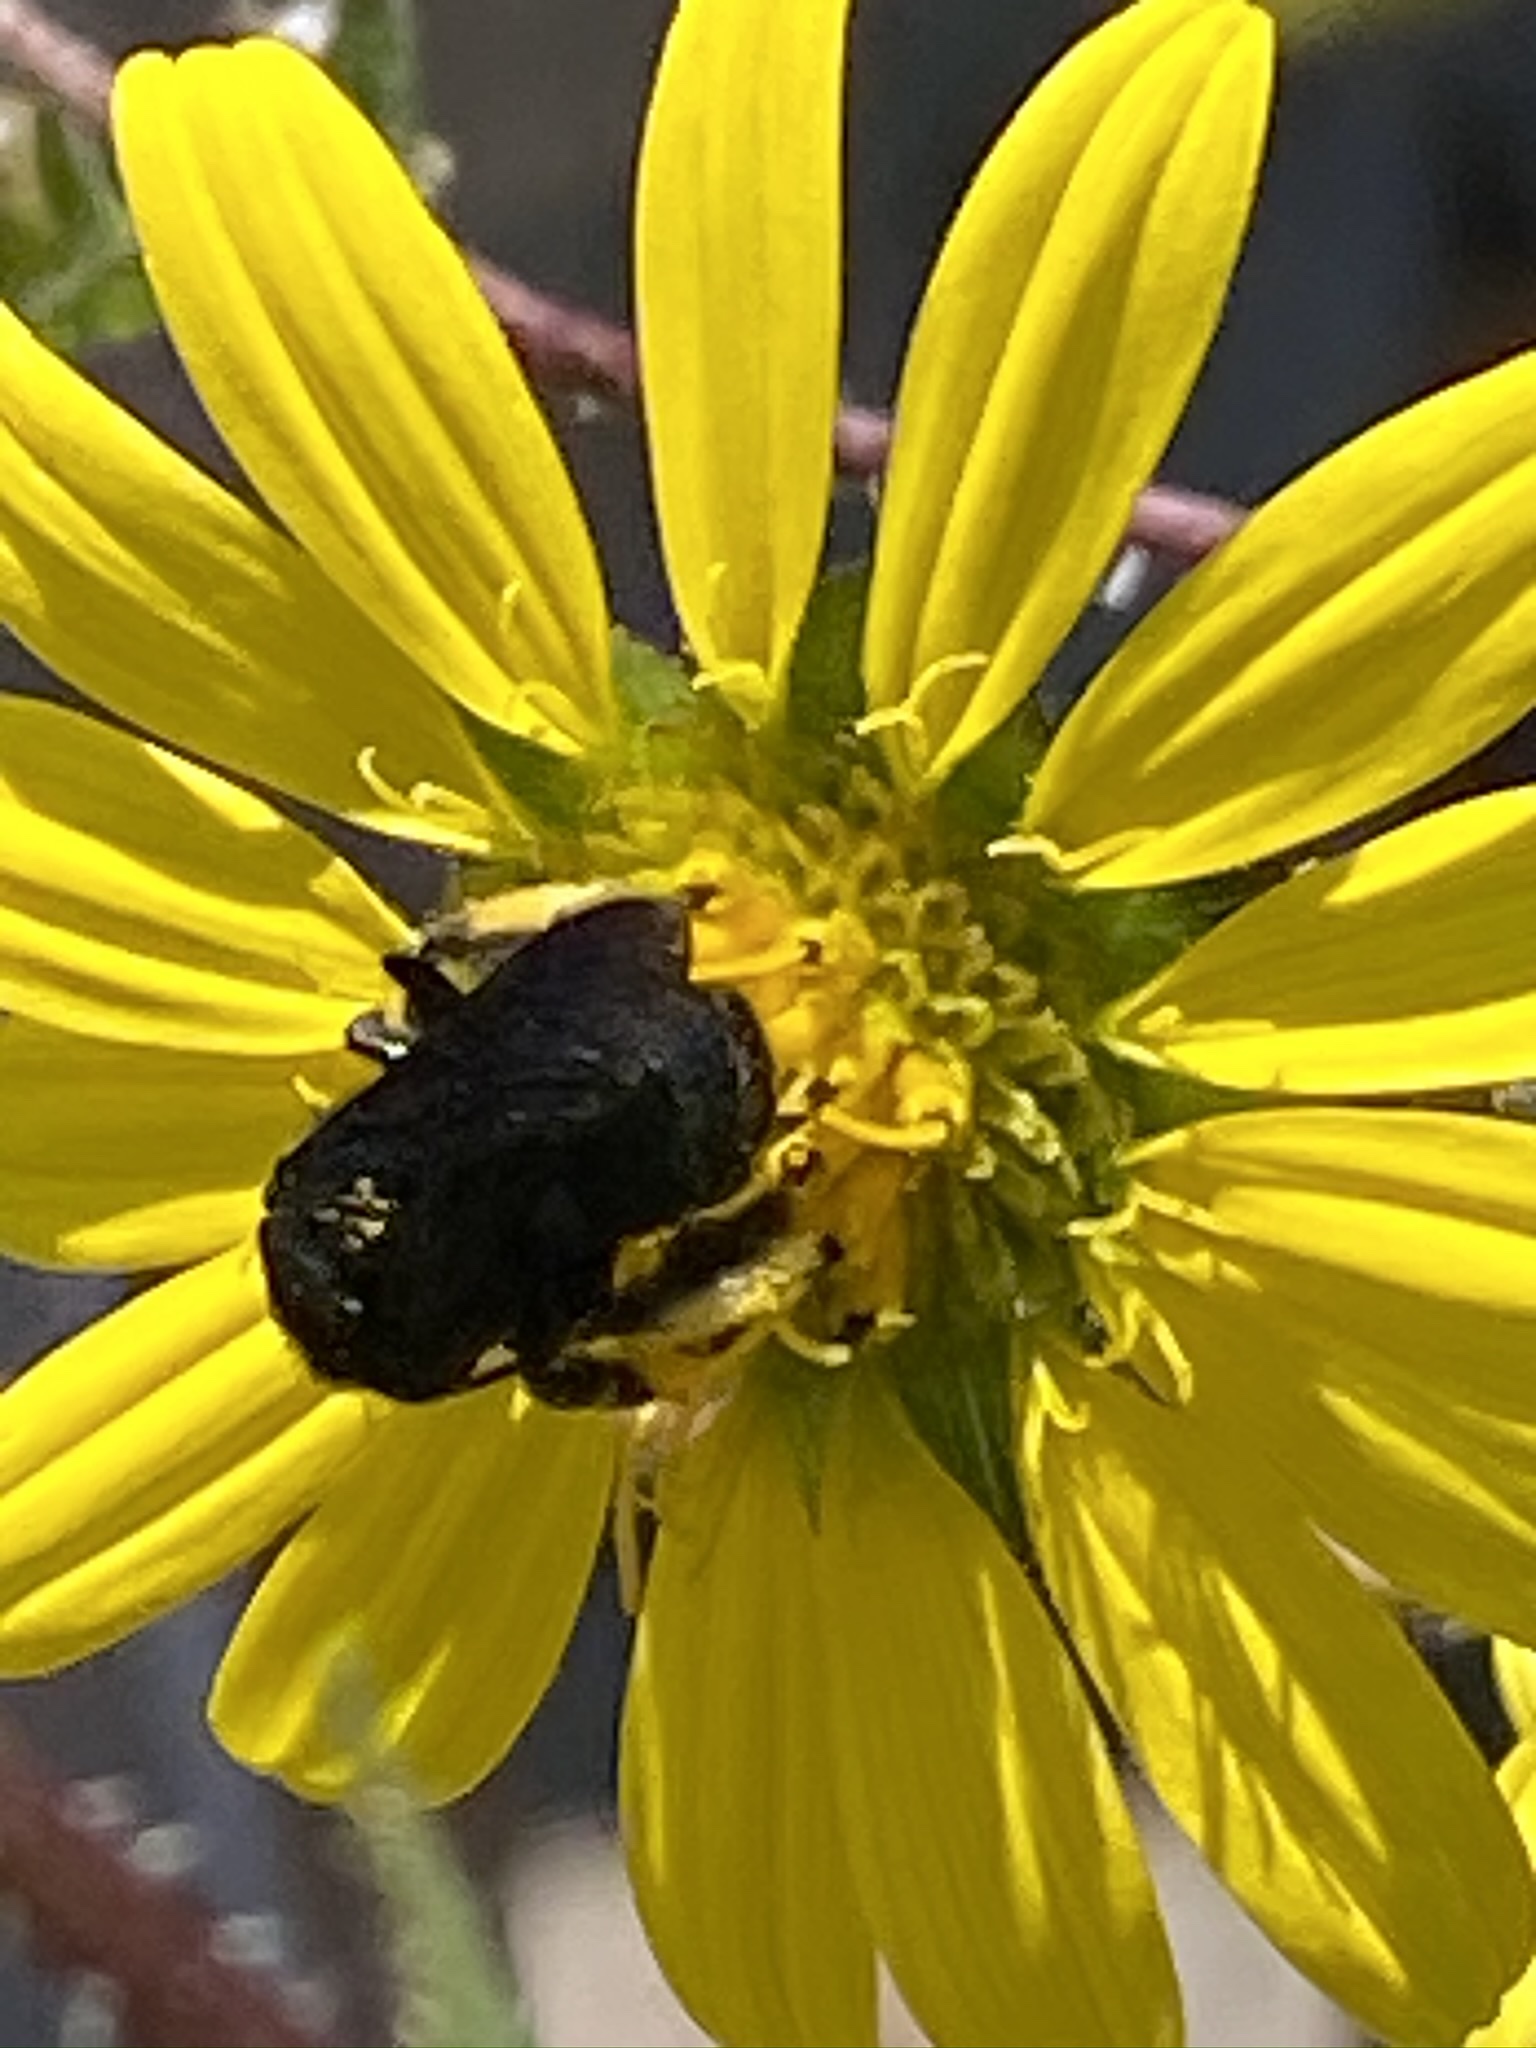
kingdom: Animalia
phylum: Arthropoda
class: Insecta
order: Hymenoptera
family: Apidae
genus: Xylocopa
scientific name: Xylocopa strandi
